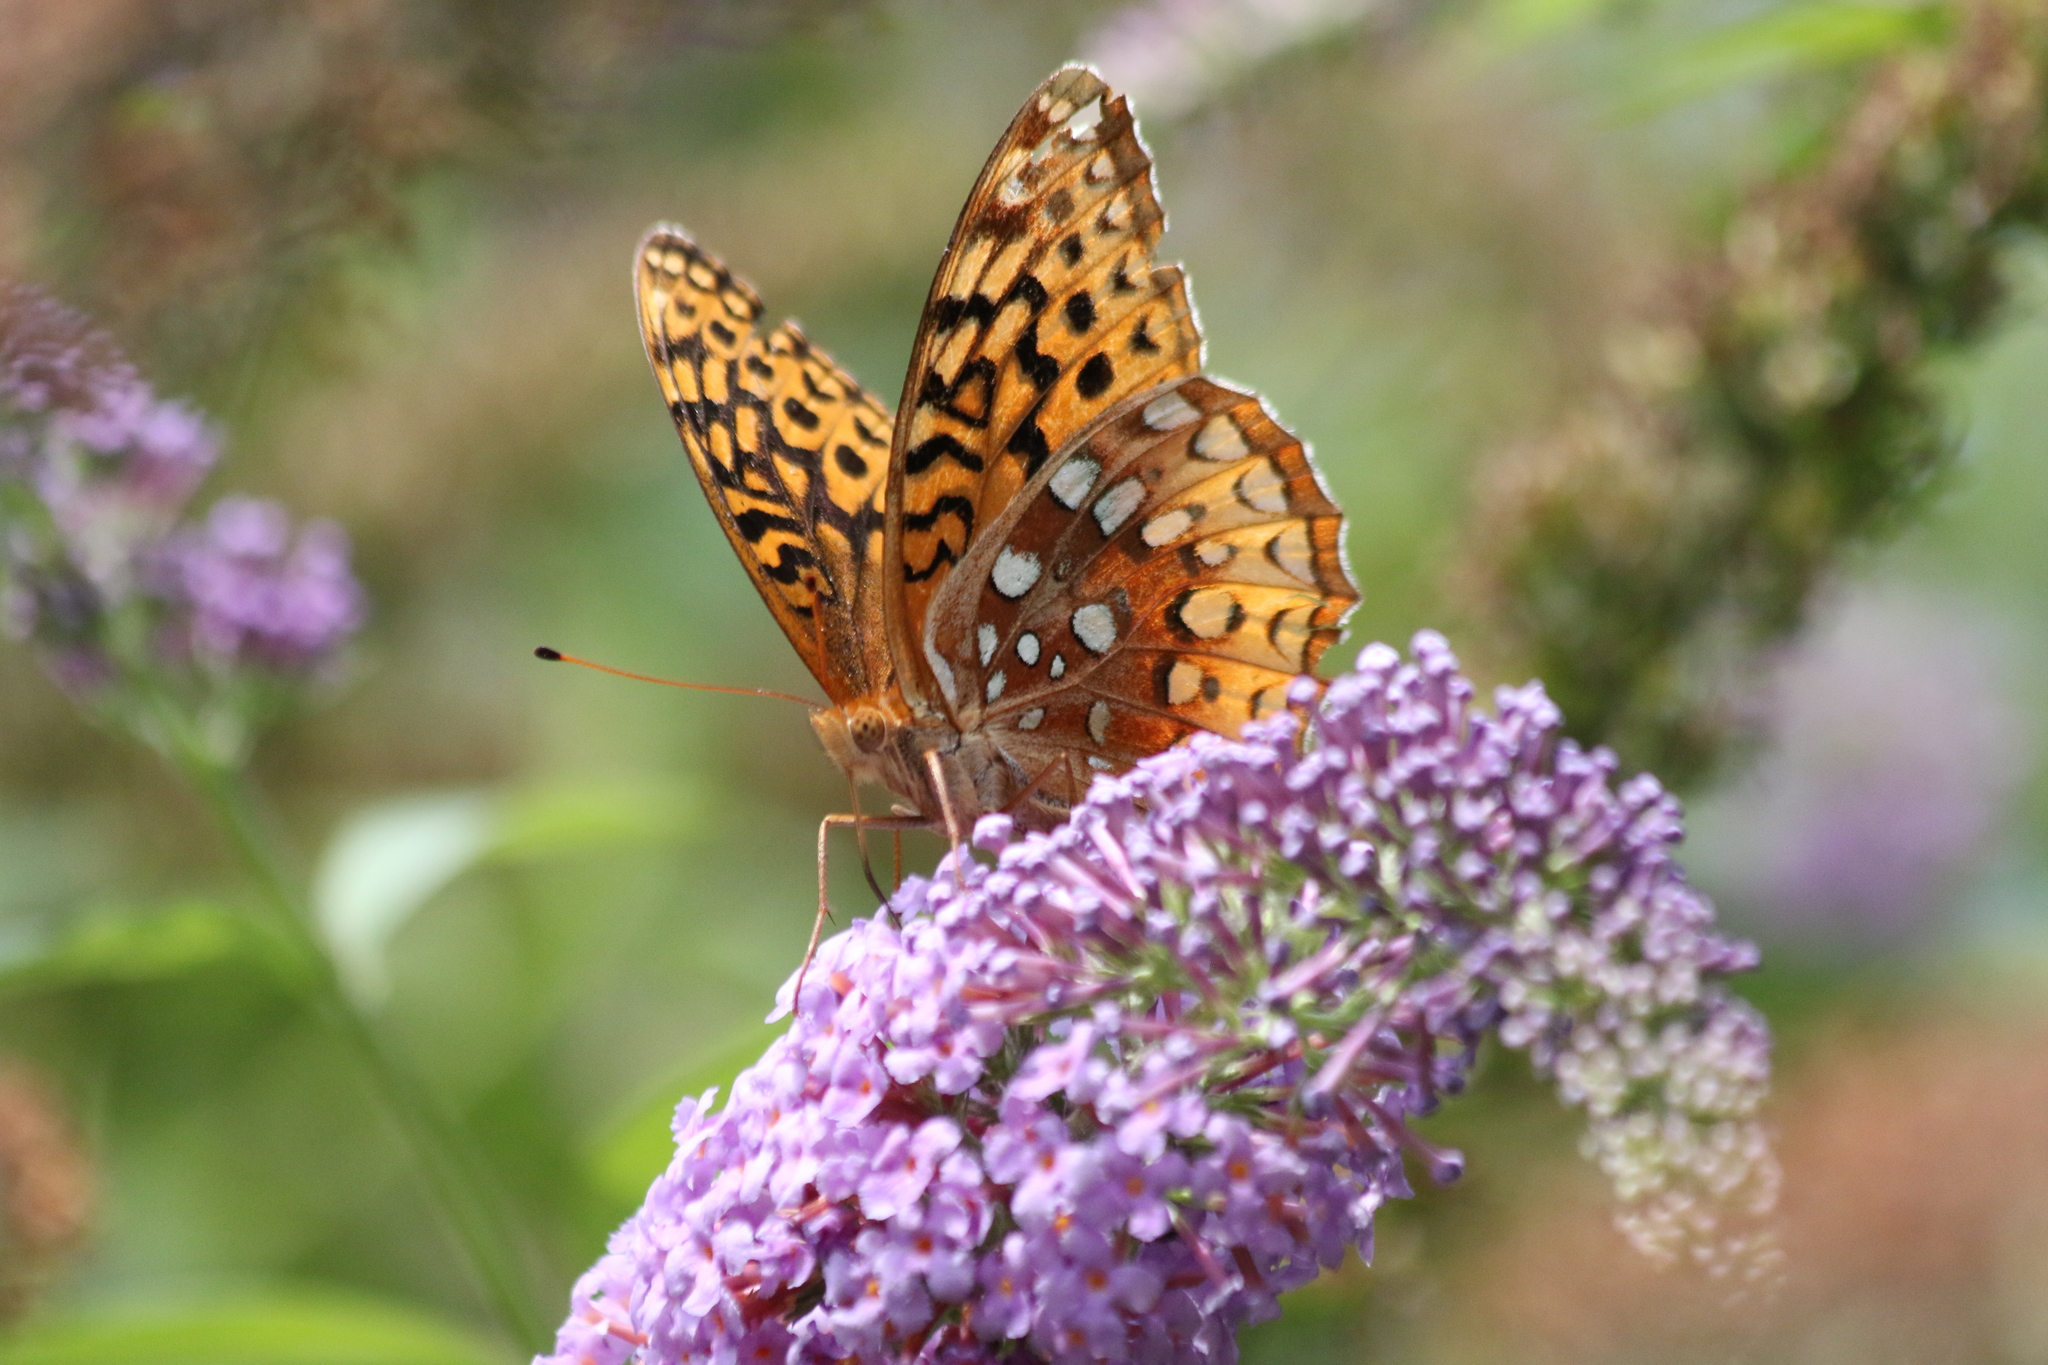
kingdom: Animalia
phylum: Arthropoda
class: Insecta
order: Lepidoptera
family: Nymphalidae
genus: Speyeria
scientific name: Speyeria cybele
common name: Great spangled fritillary
